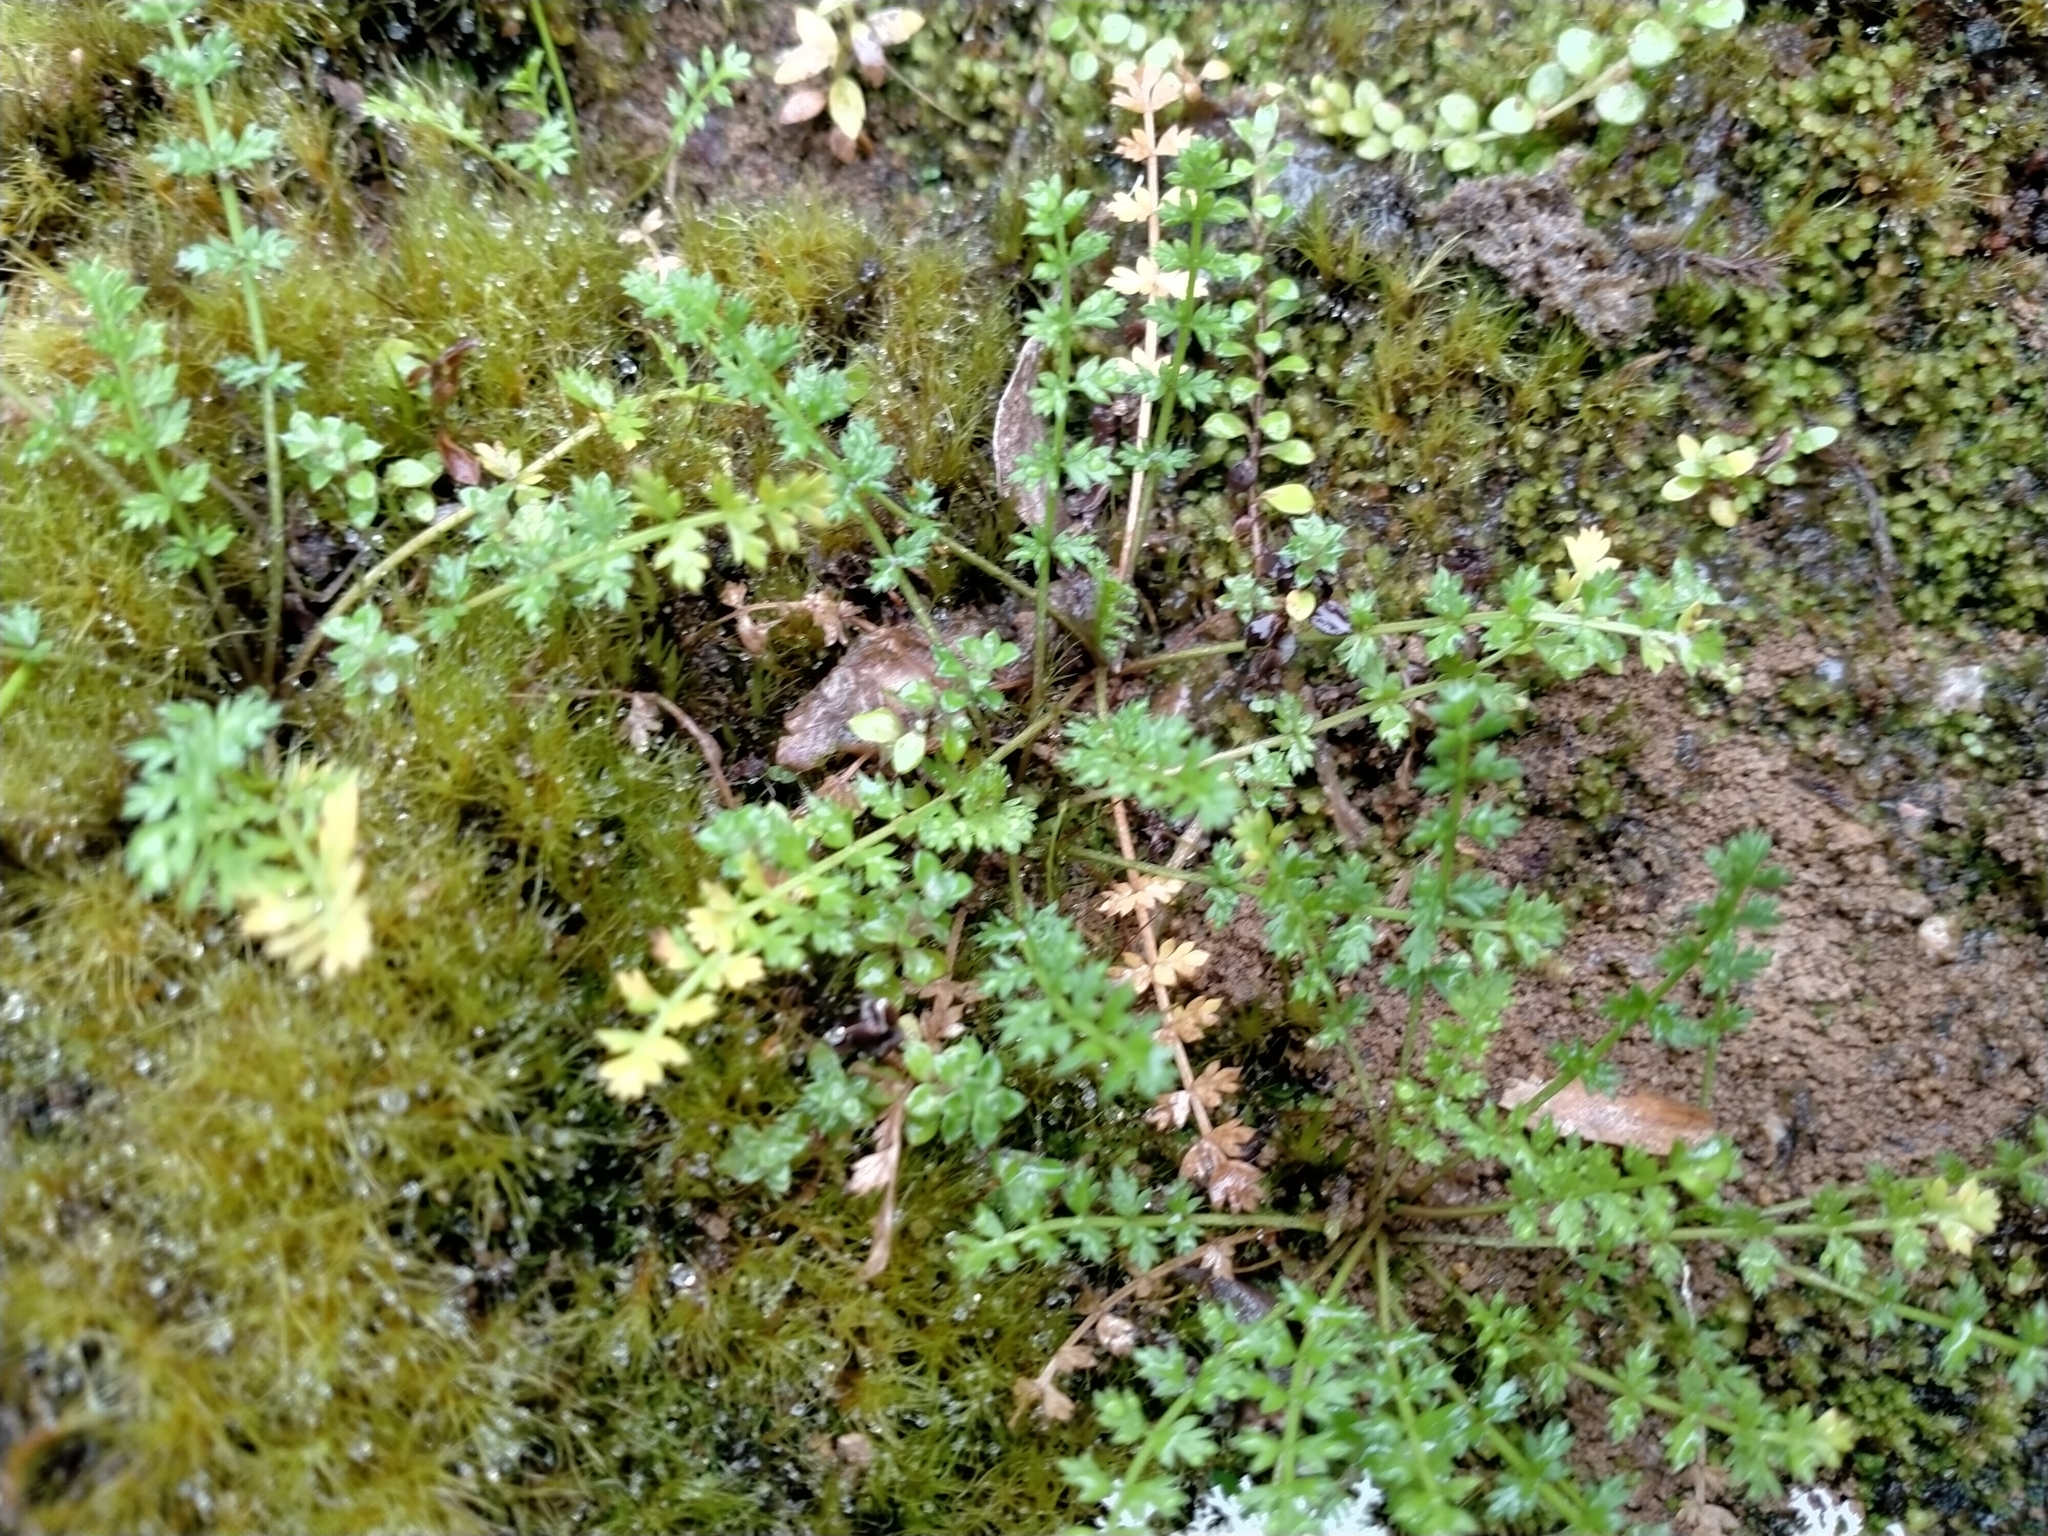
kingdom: Plantae
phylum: Tracheophyta
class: Magnoliopsida
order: Apiales
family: Apiaceae
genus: Chaerophyllum
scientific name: Chaerophyllum colensoi
